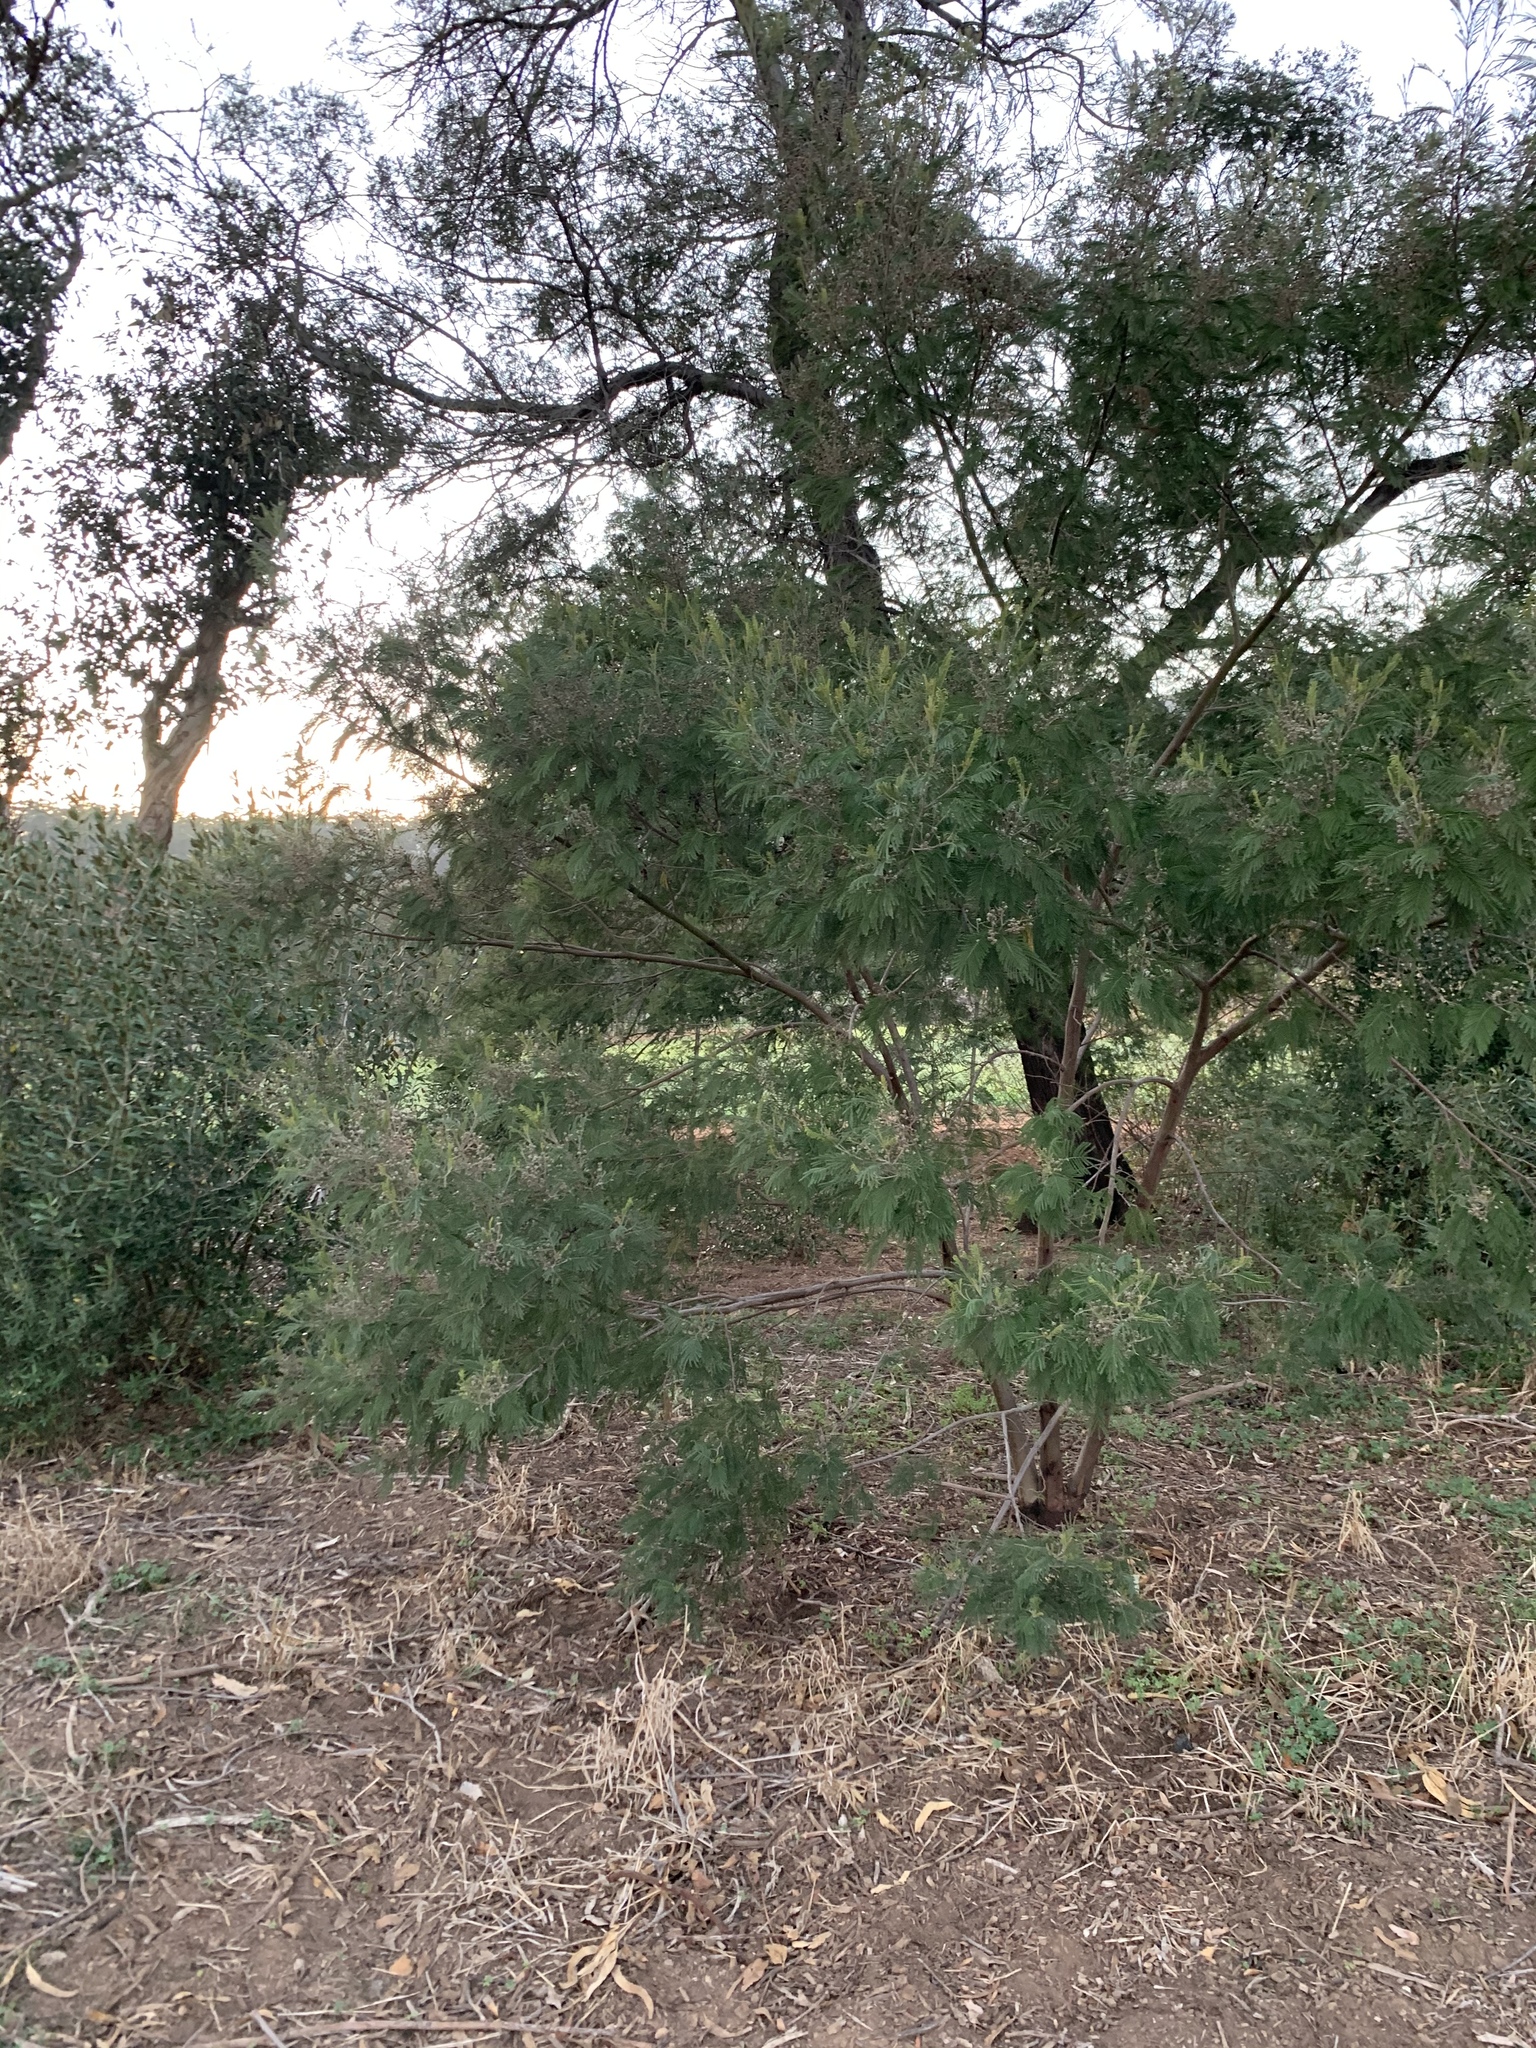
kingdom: Plantae
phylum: Tracheophyta
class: Magnoliopsida
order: Fabales
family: Fabaceae
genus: Acacia
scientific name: Acacia mearnsii
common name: Black wattle
